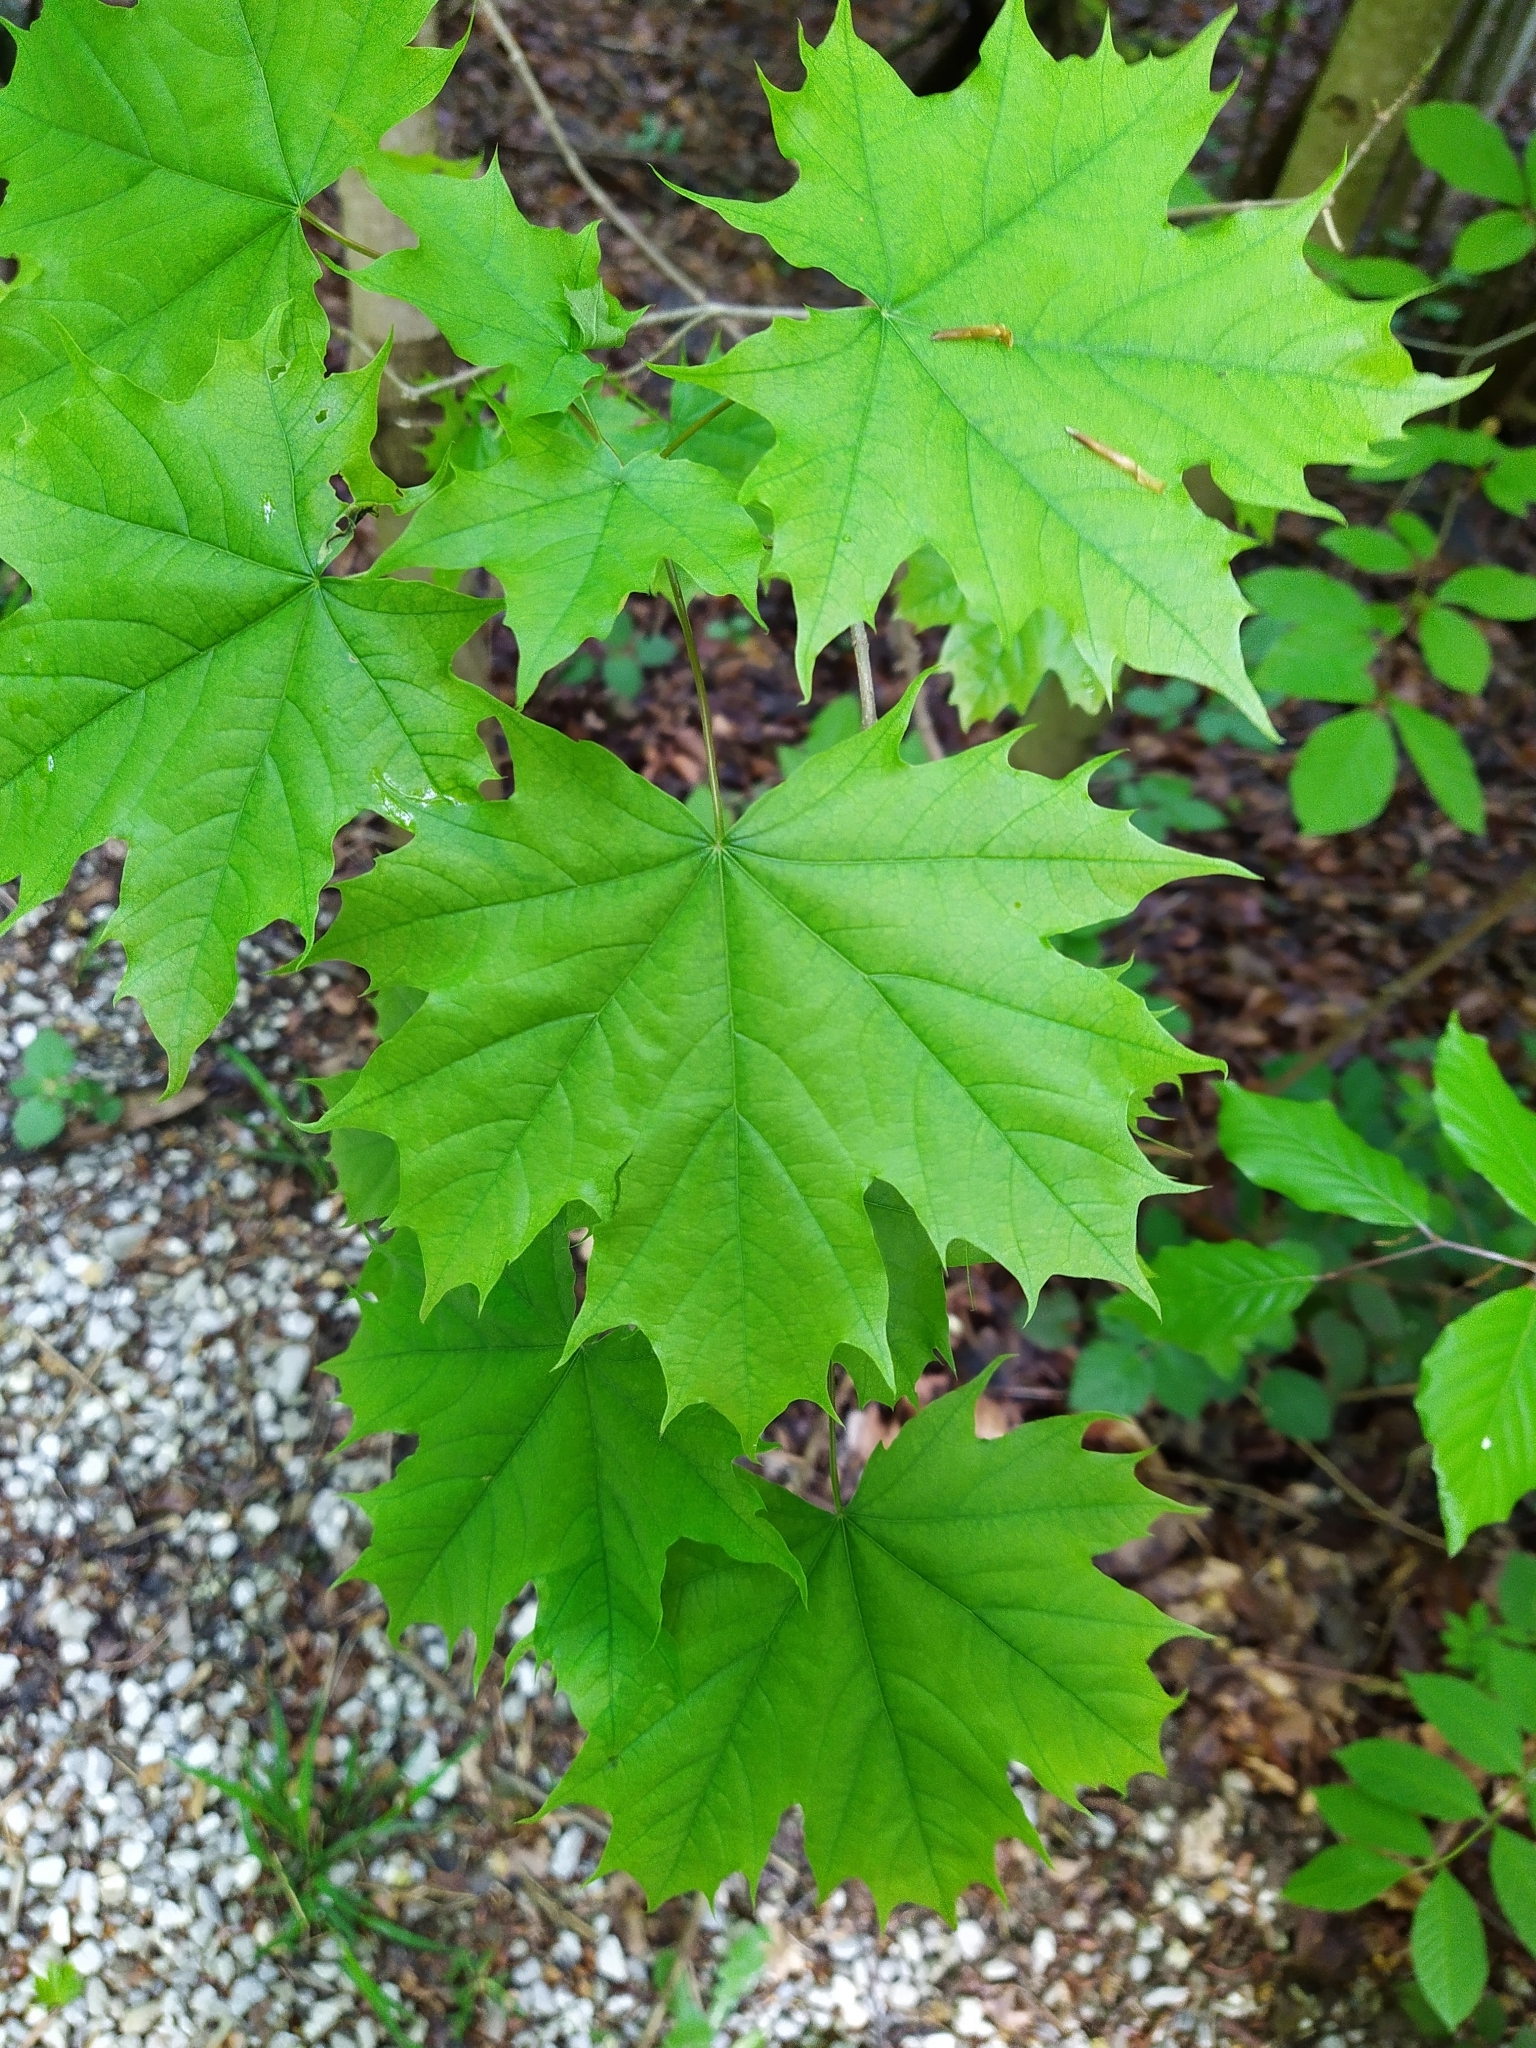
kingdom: Plantae
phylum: Tracheophyta
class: Magnoliopsida
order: Sapindales
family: Sapindaceae
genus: Acer
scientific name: Acer platanoides
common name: Norway maple
